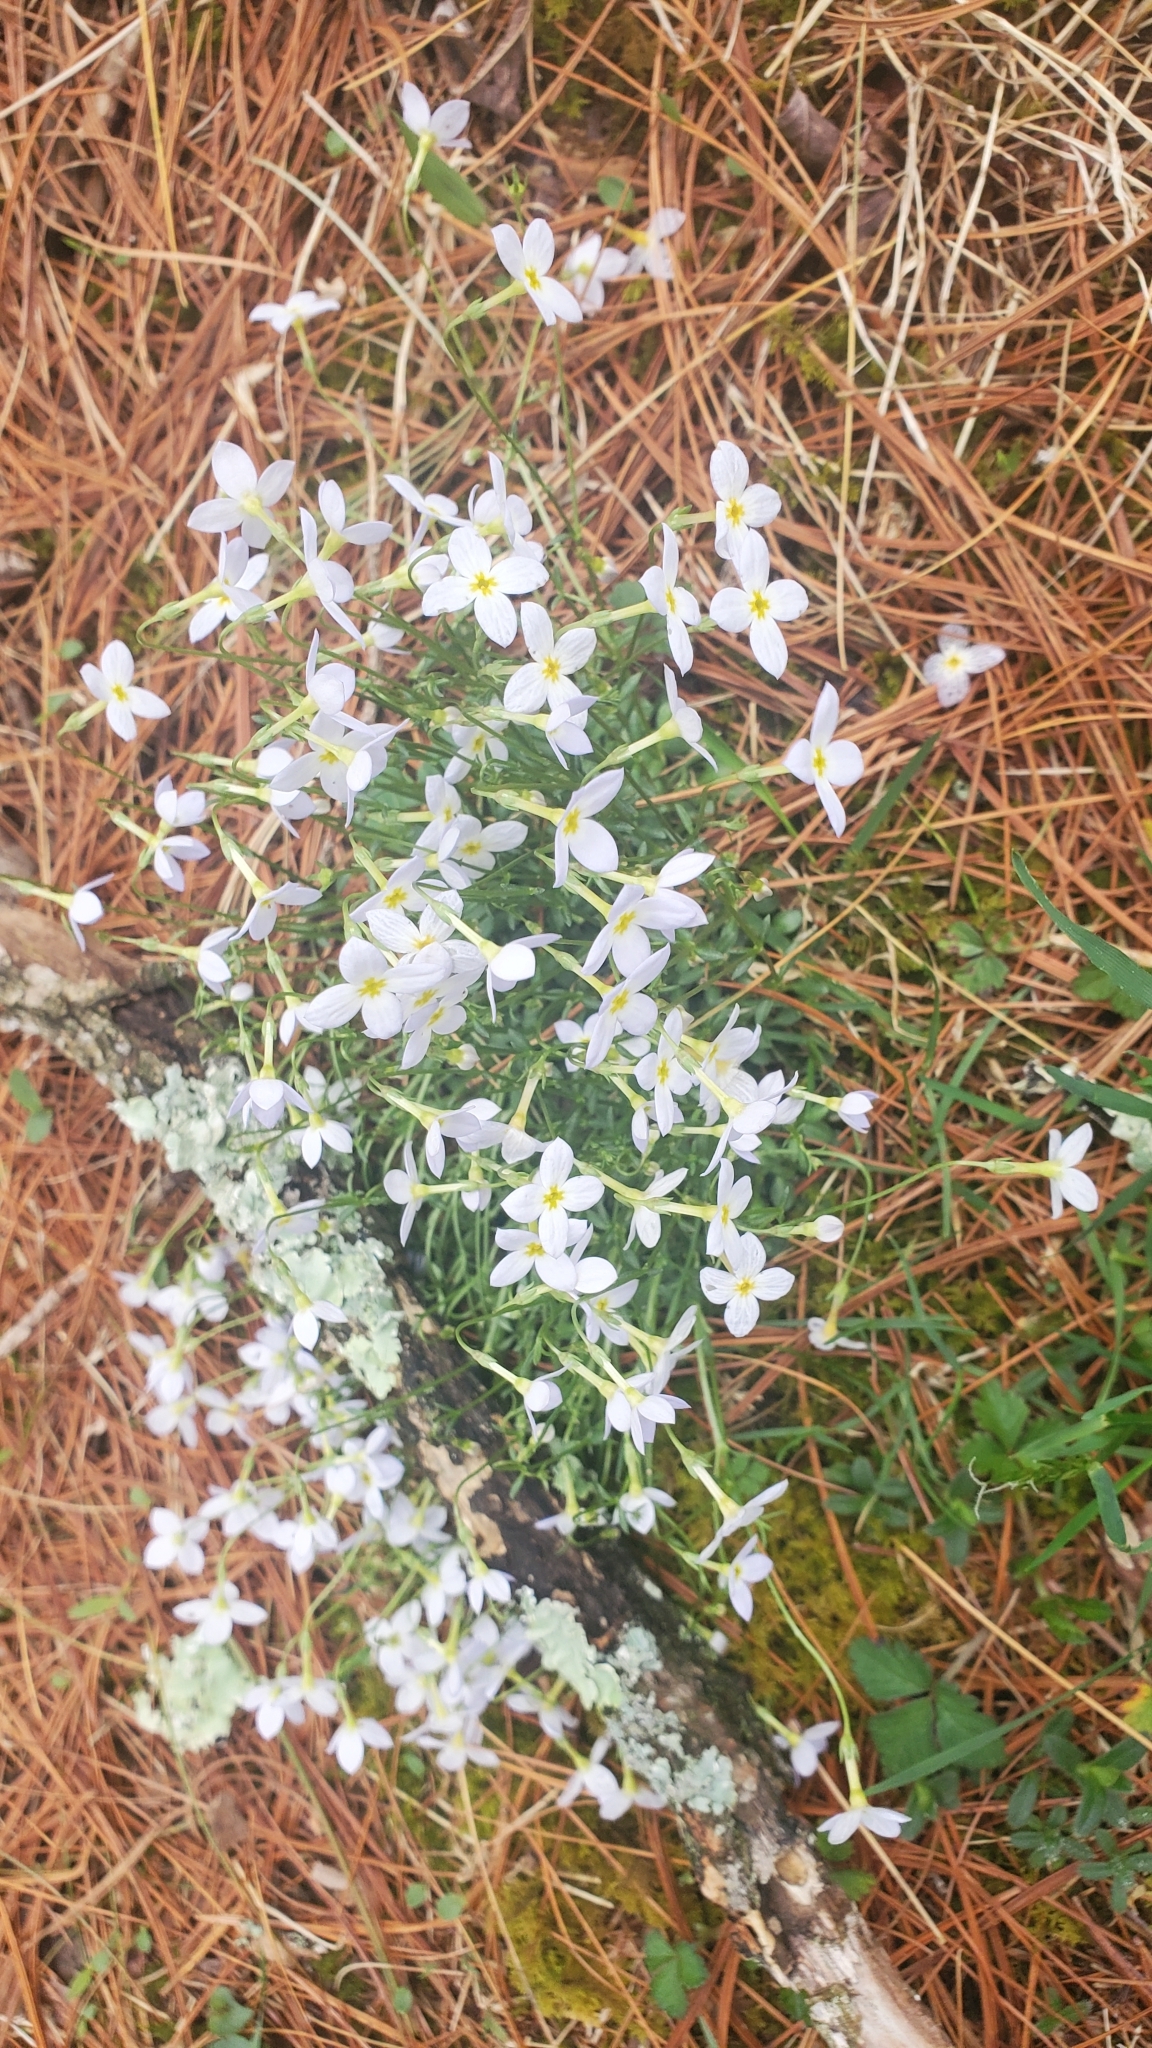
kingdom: Plantae
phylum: Tracheophyta
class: Magnoliopsida
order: Gentianales
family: Rubiaceae
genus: Houstonia
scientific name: Houstonia caerulea
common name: Bluets
